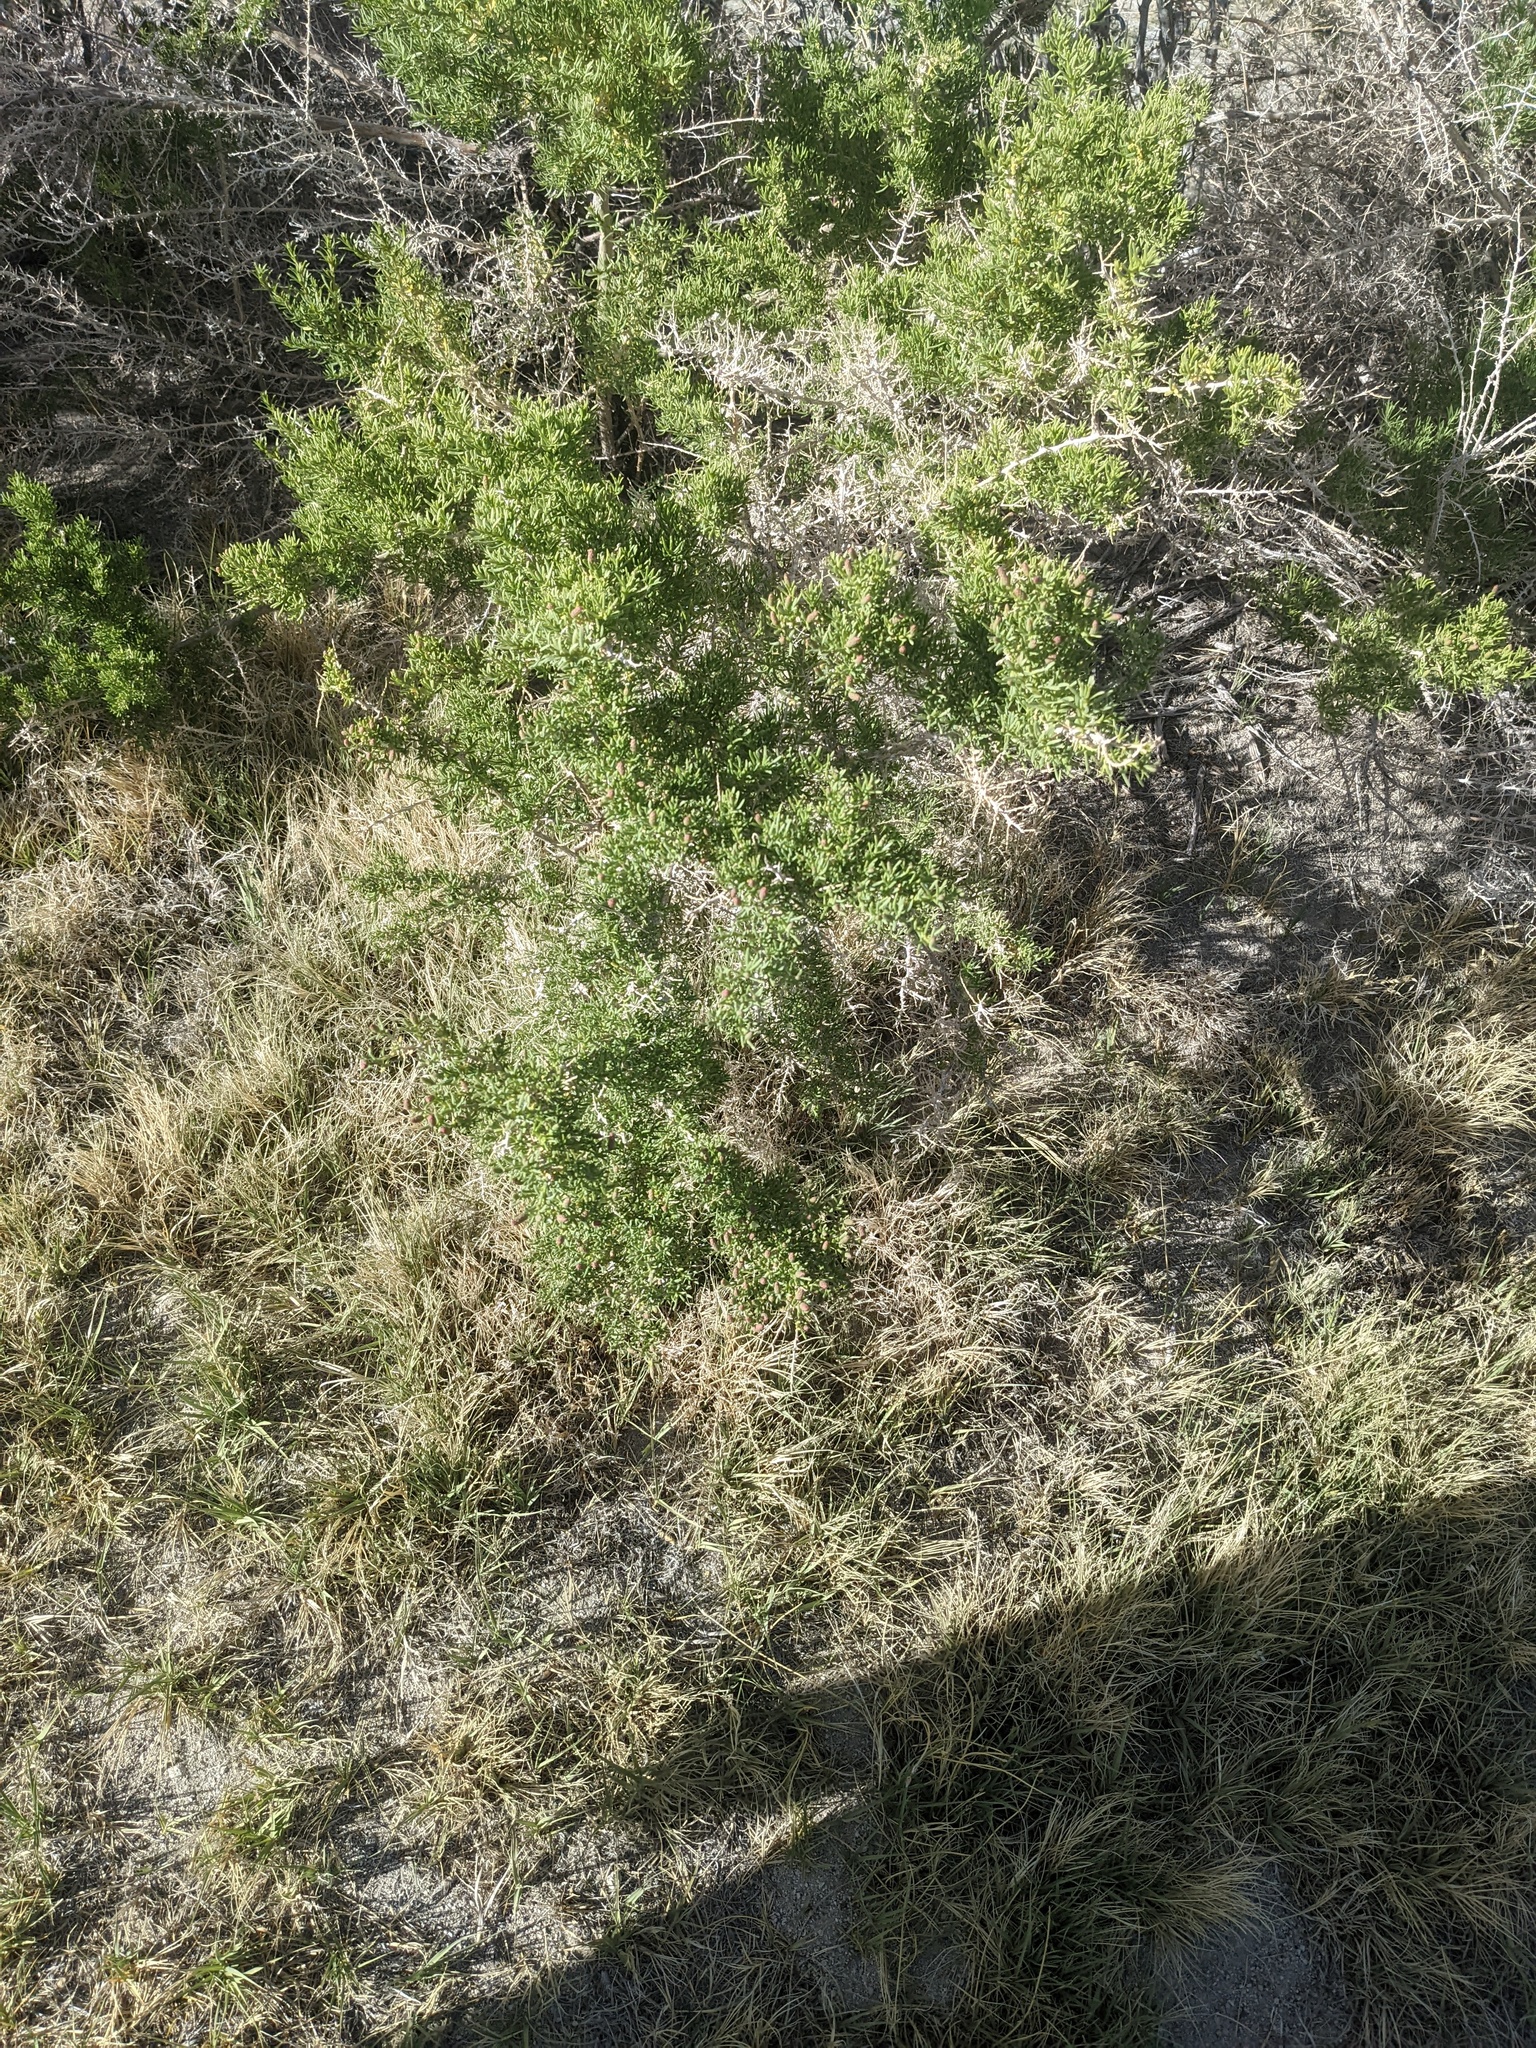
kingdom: Plantae
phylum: Tracheophyta
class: Magnoliopsida
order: Caryophyllales
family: Sarcobataceae
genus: Sarcobatus
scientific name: Sarcobatus vermiculatus
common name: Greasewood
